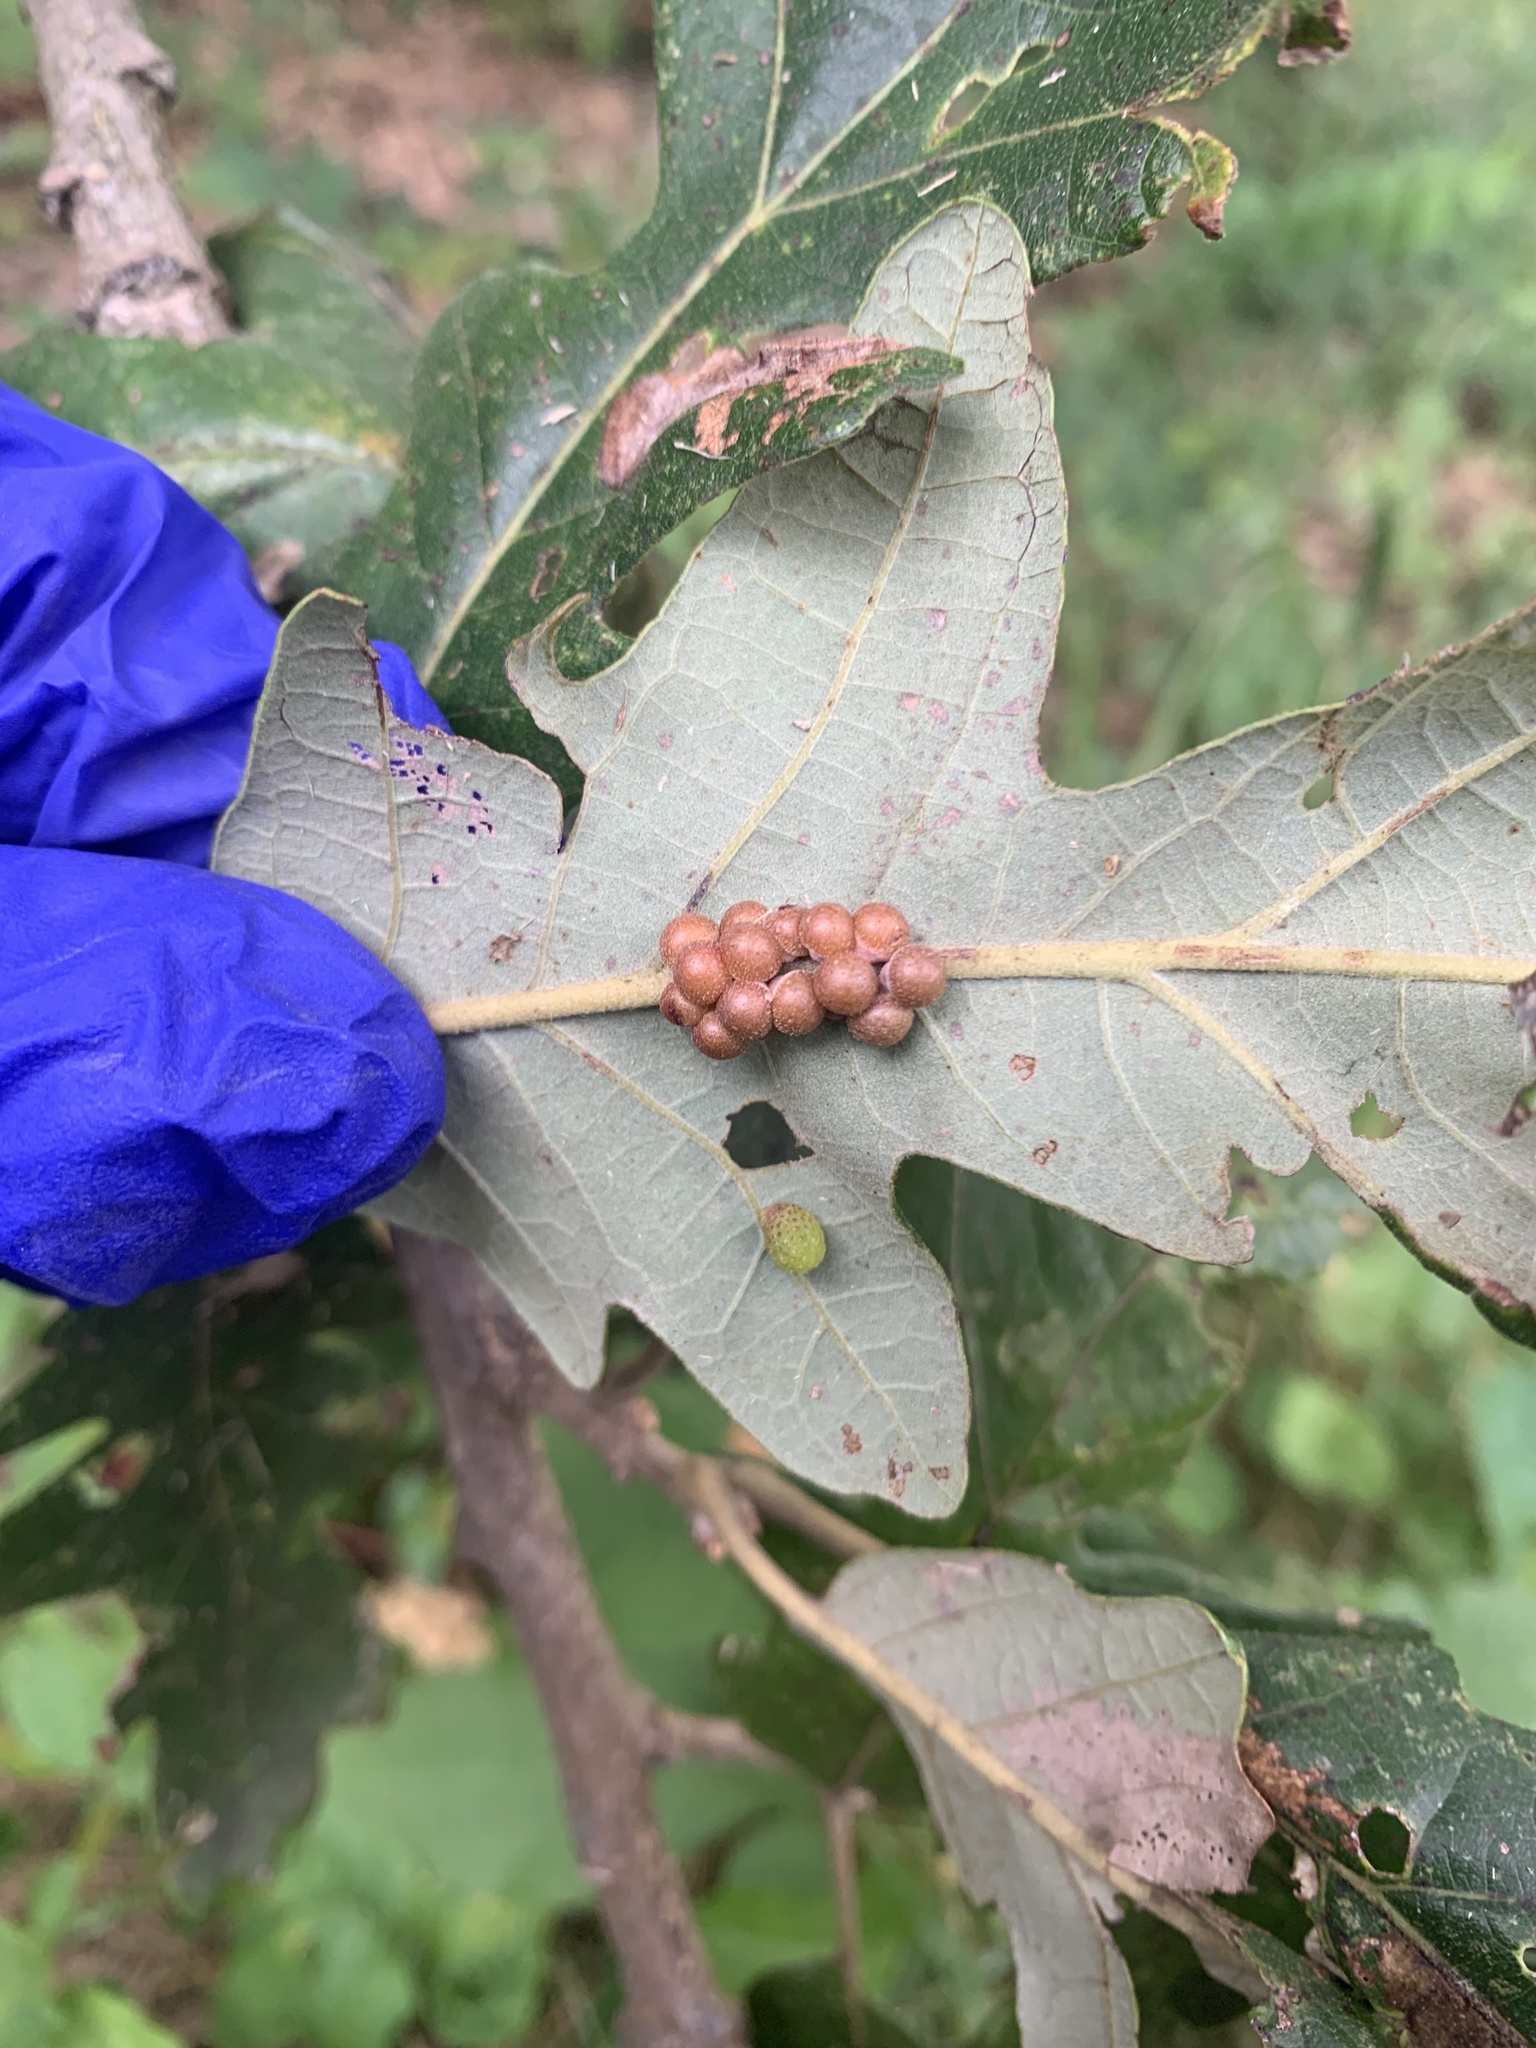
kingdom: Animalia
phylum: Arthropoda
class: Insecta
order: Hymenoptera
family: Cynipidae
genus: Andricus
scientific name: Andricus
